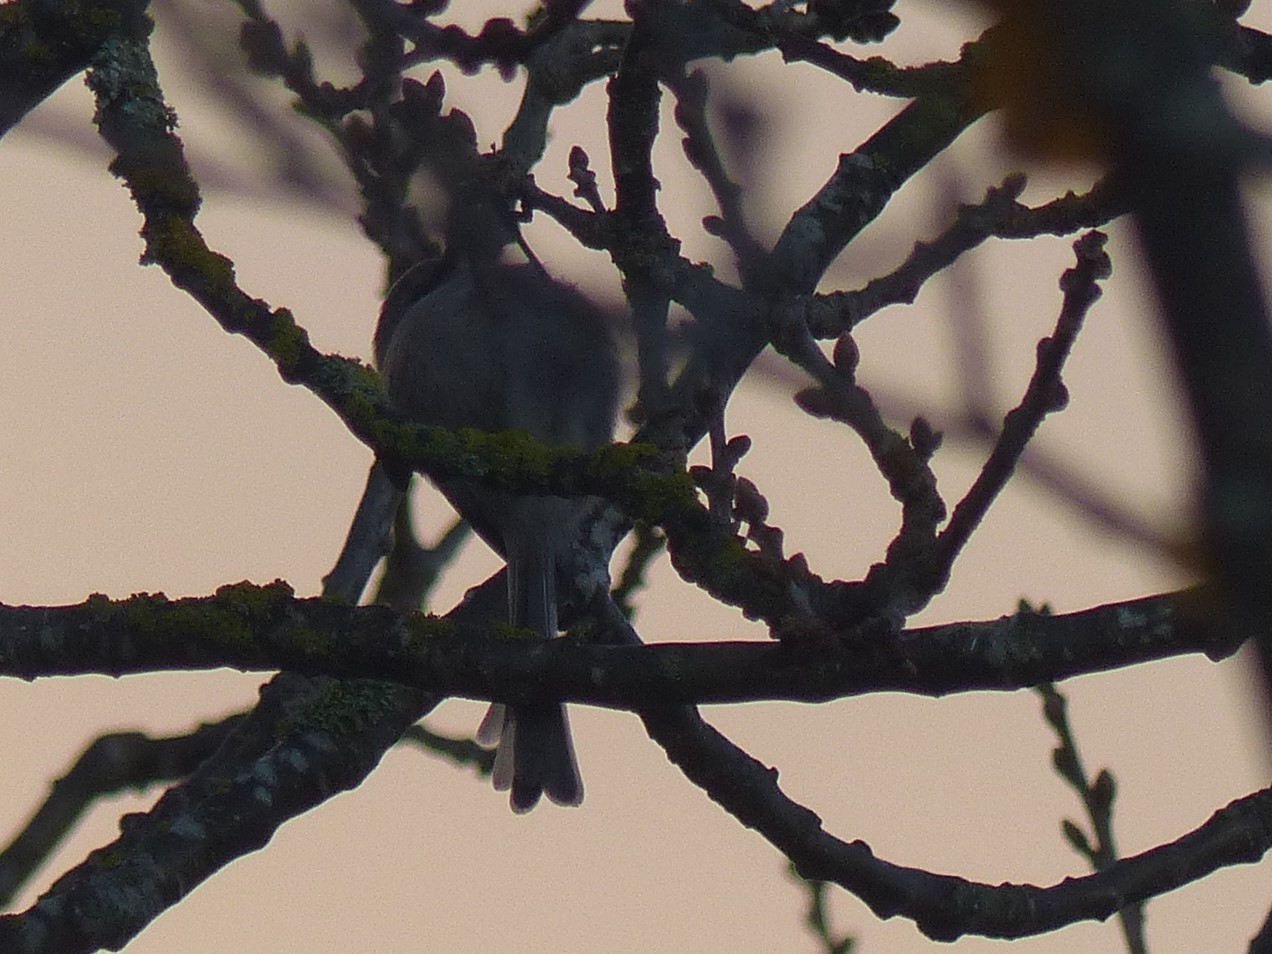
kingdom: Animalia
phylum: Chordata
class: Aves
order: Passeriformes
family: Aegithalidae
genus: Psaltriparus
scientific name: Psaltriparus minimus
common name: American bushtit
